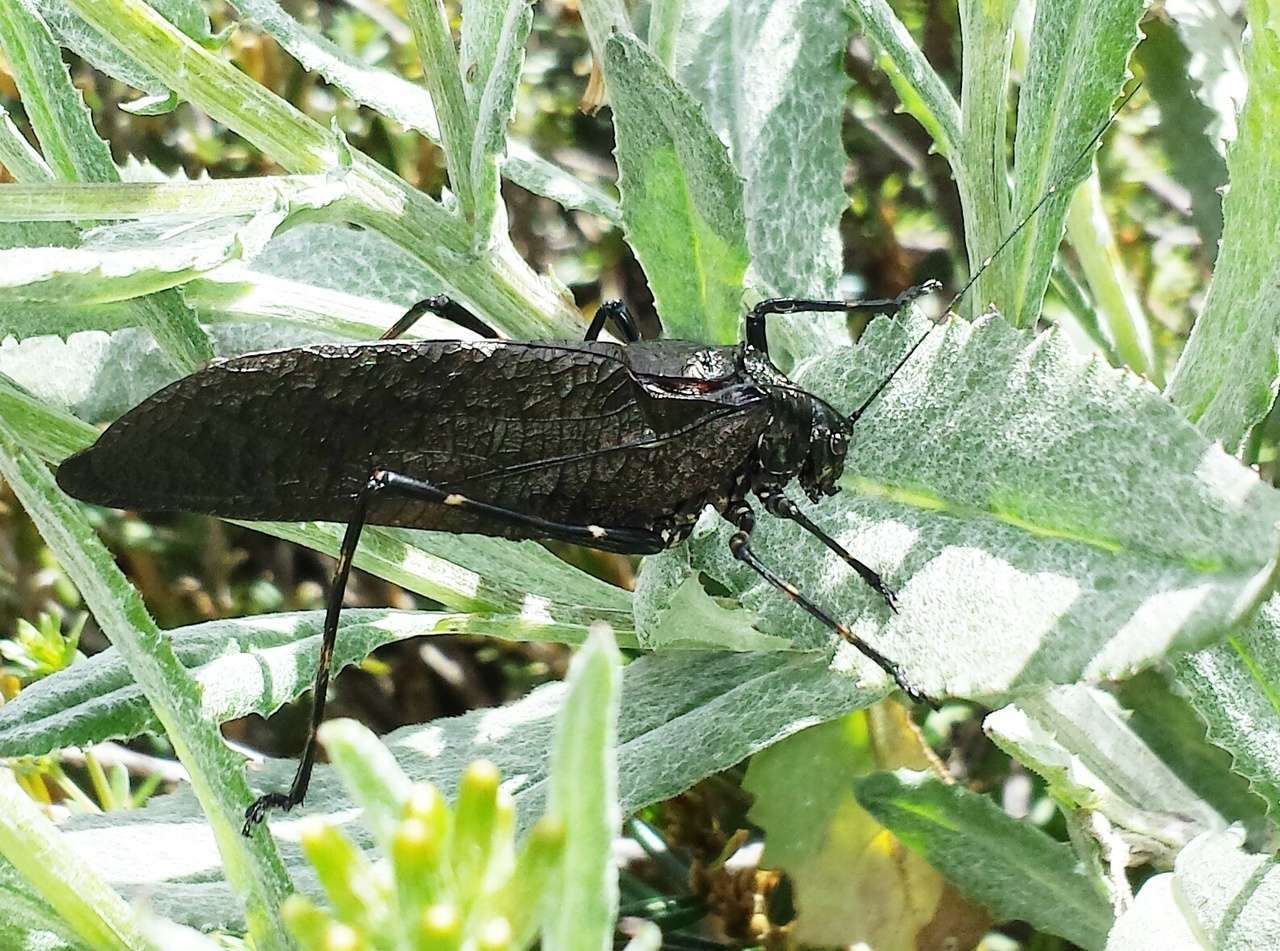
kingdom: Animalia
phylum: Arthropoda
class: Insecta
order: Orthoptera
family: Tettigoniidae
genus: Acripeza
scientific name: Acripeza reticulata
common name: Mountain katydid
